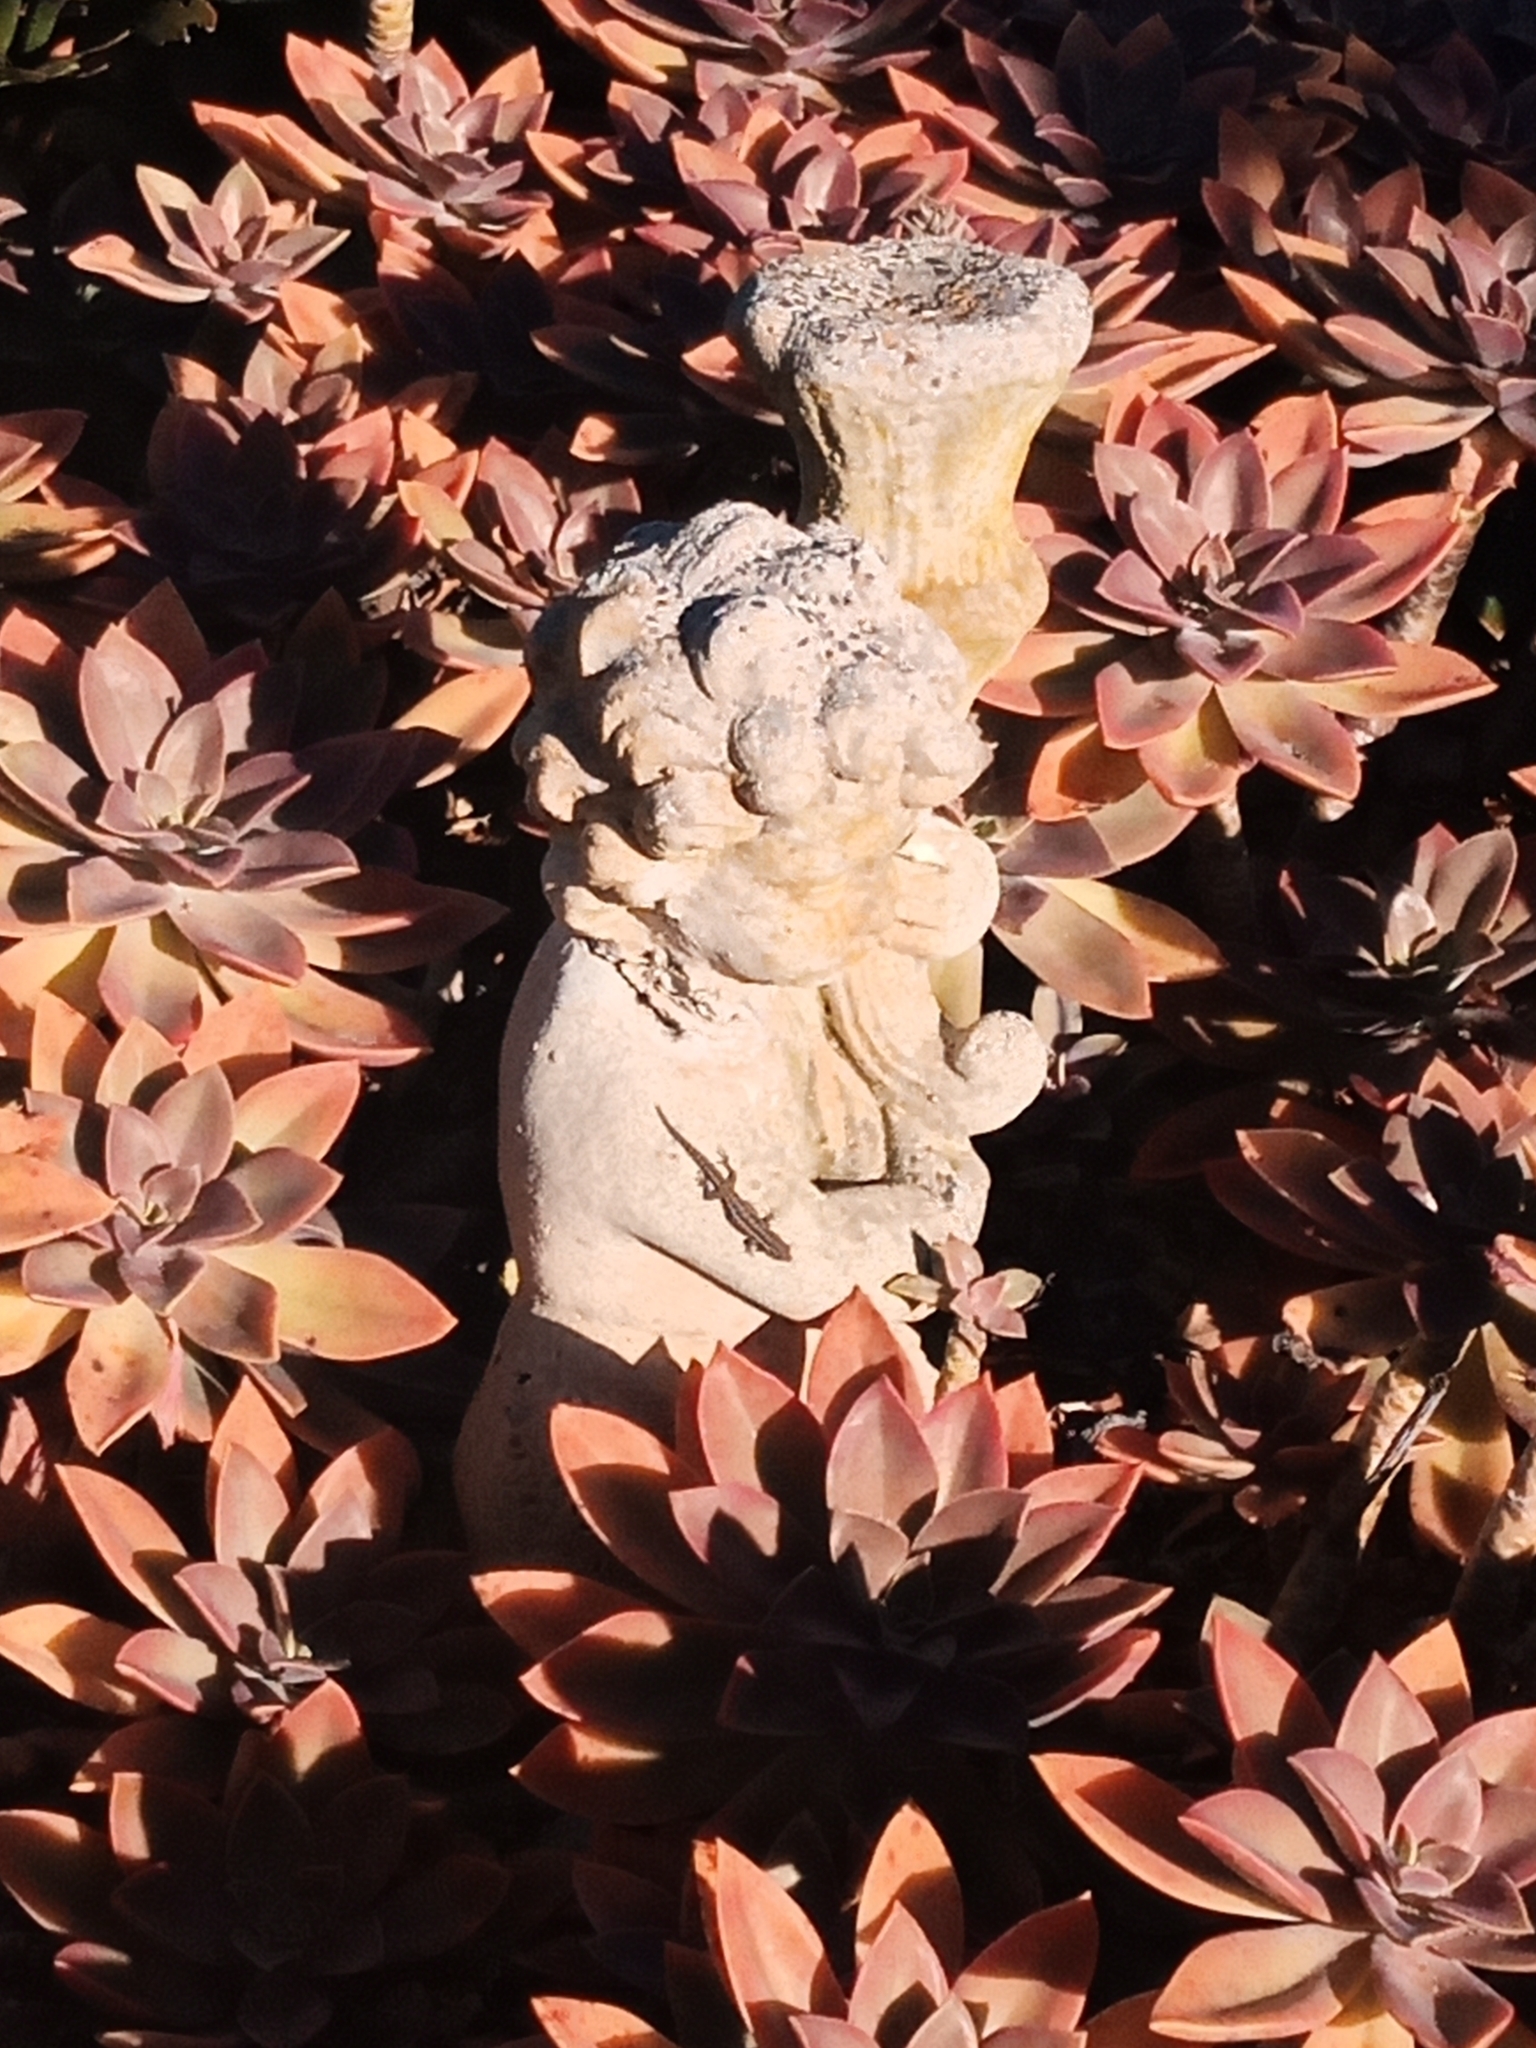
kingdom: Animalia
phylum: Chordata
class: Squamata
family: Gekkonidae
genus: Lygodactylus
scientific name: Lygodactylus capensis
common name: Cape dwarf gecko
